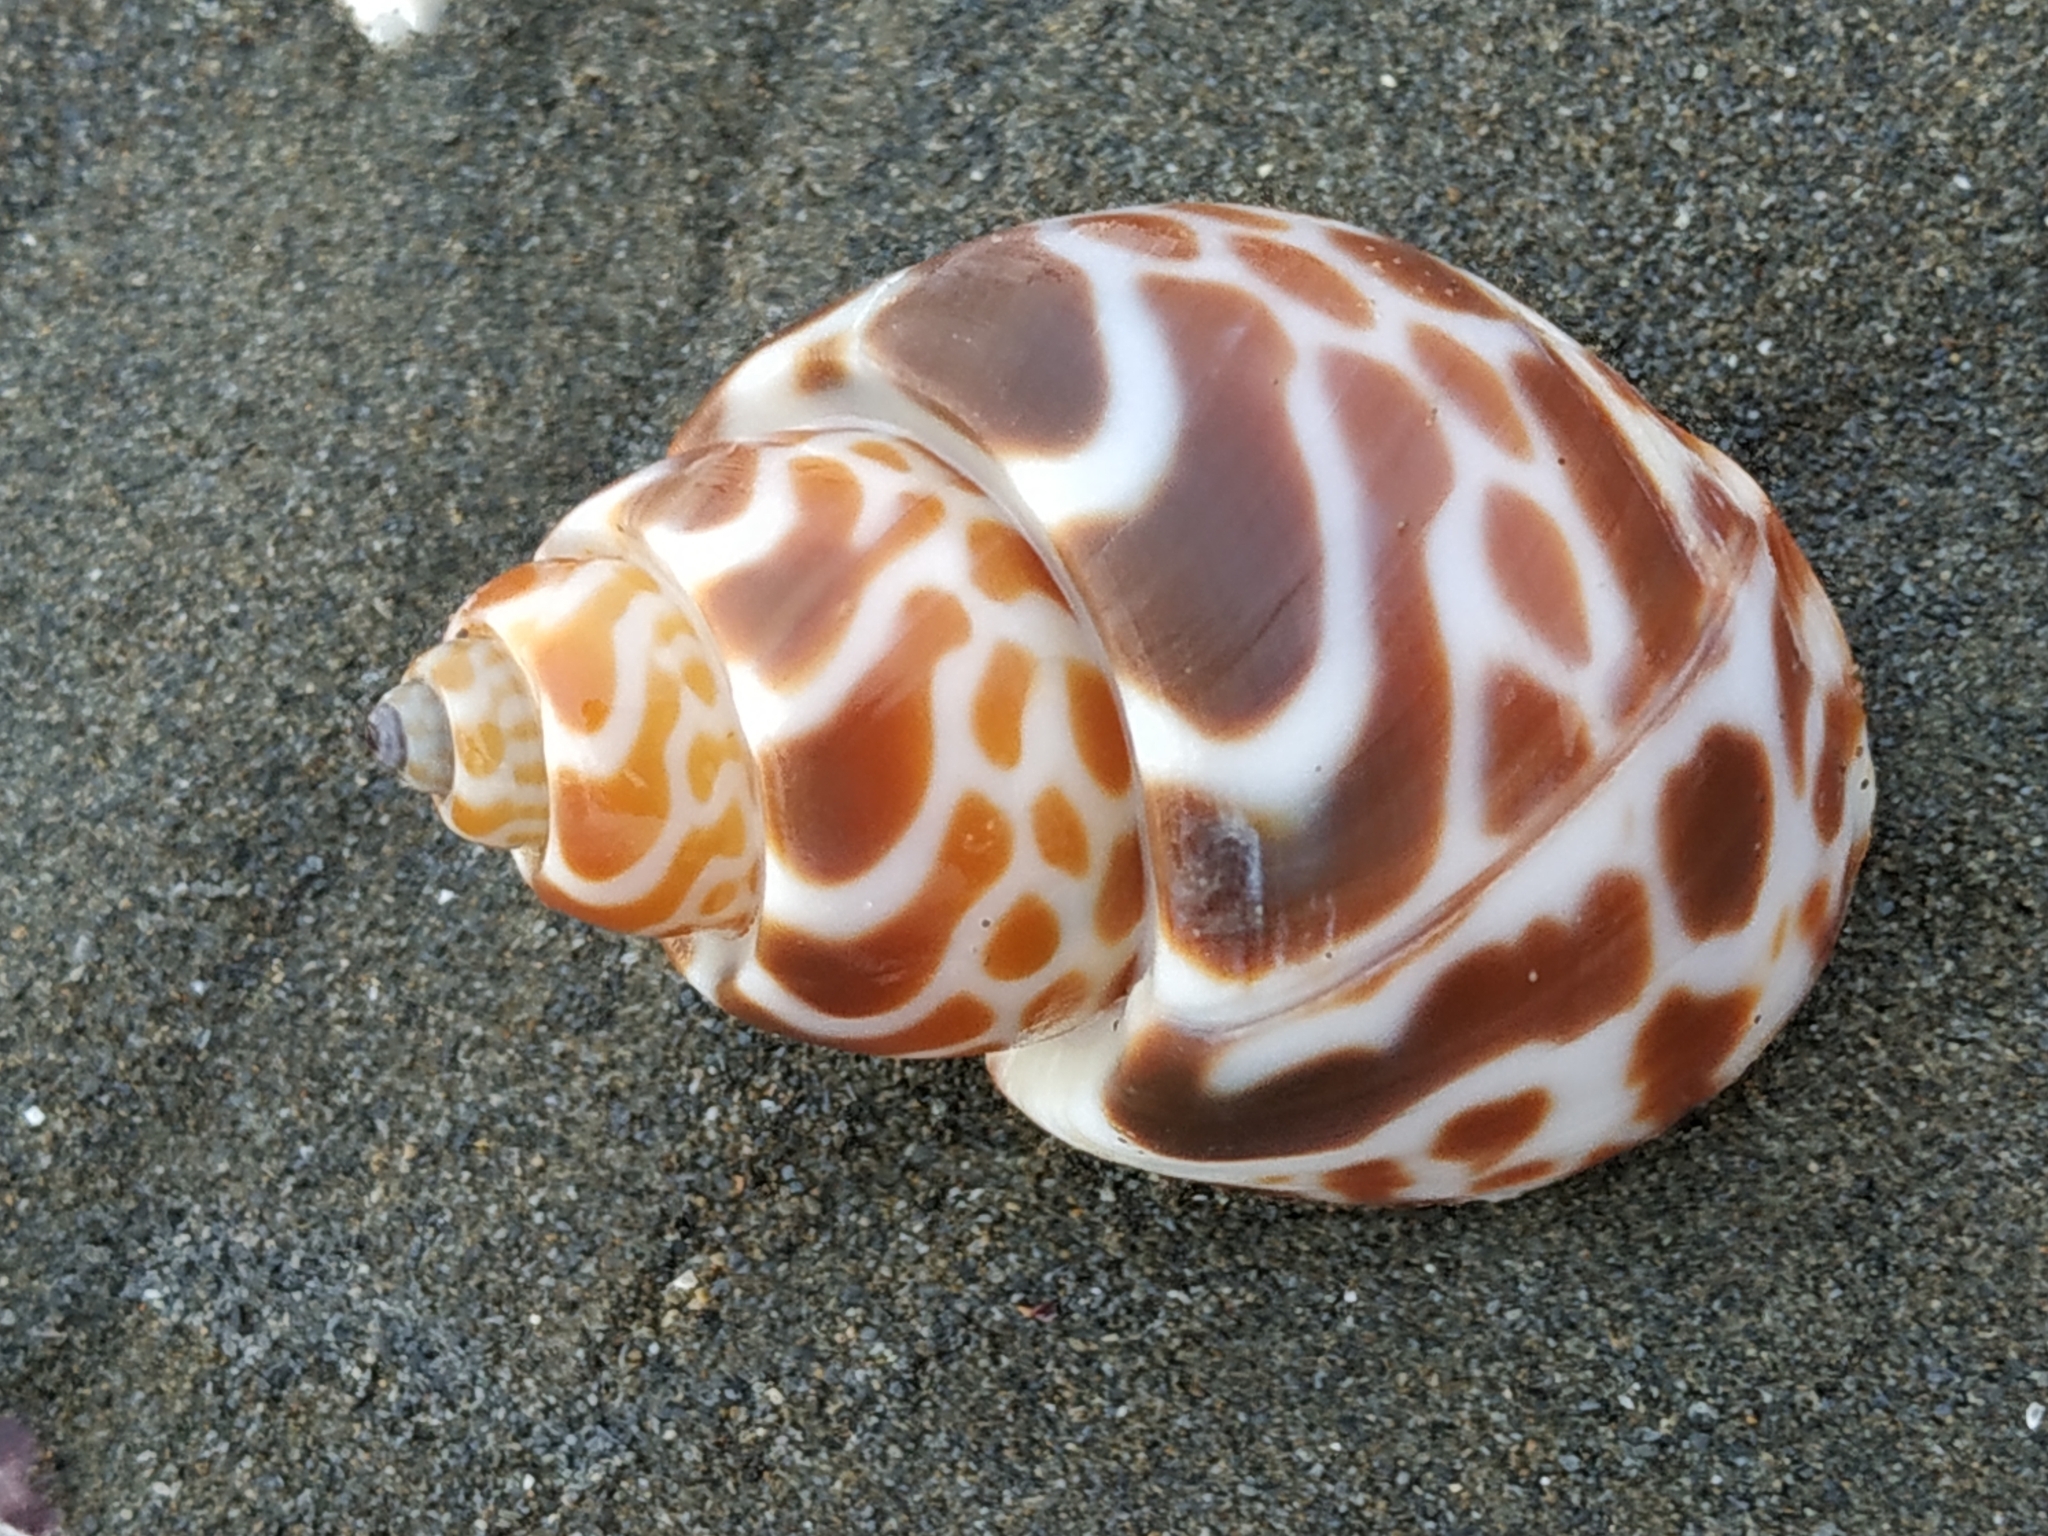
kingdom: Animalia
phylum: Mollusca
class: Gastropoda
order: Neogastropoda
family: Babyloniidae
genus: Babylonia
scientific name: Babylonia spirata
